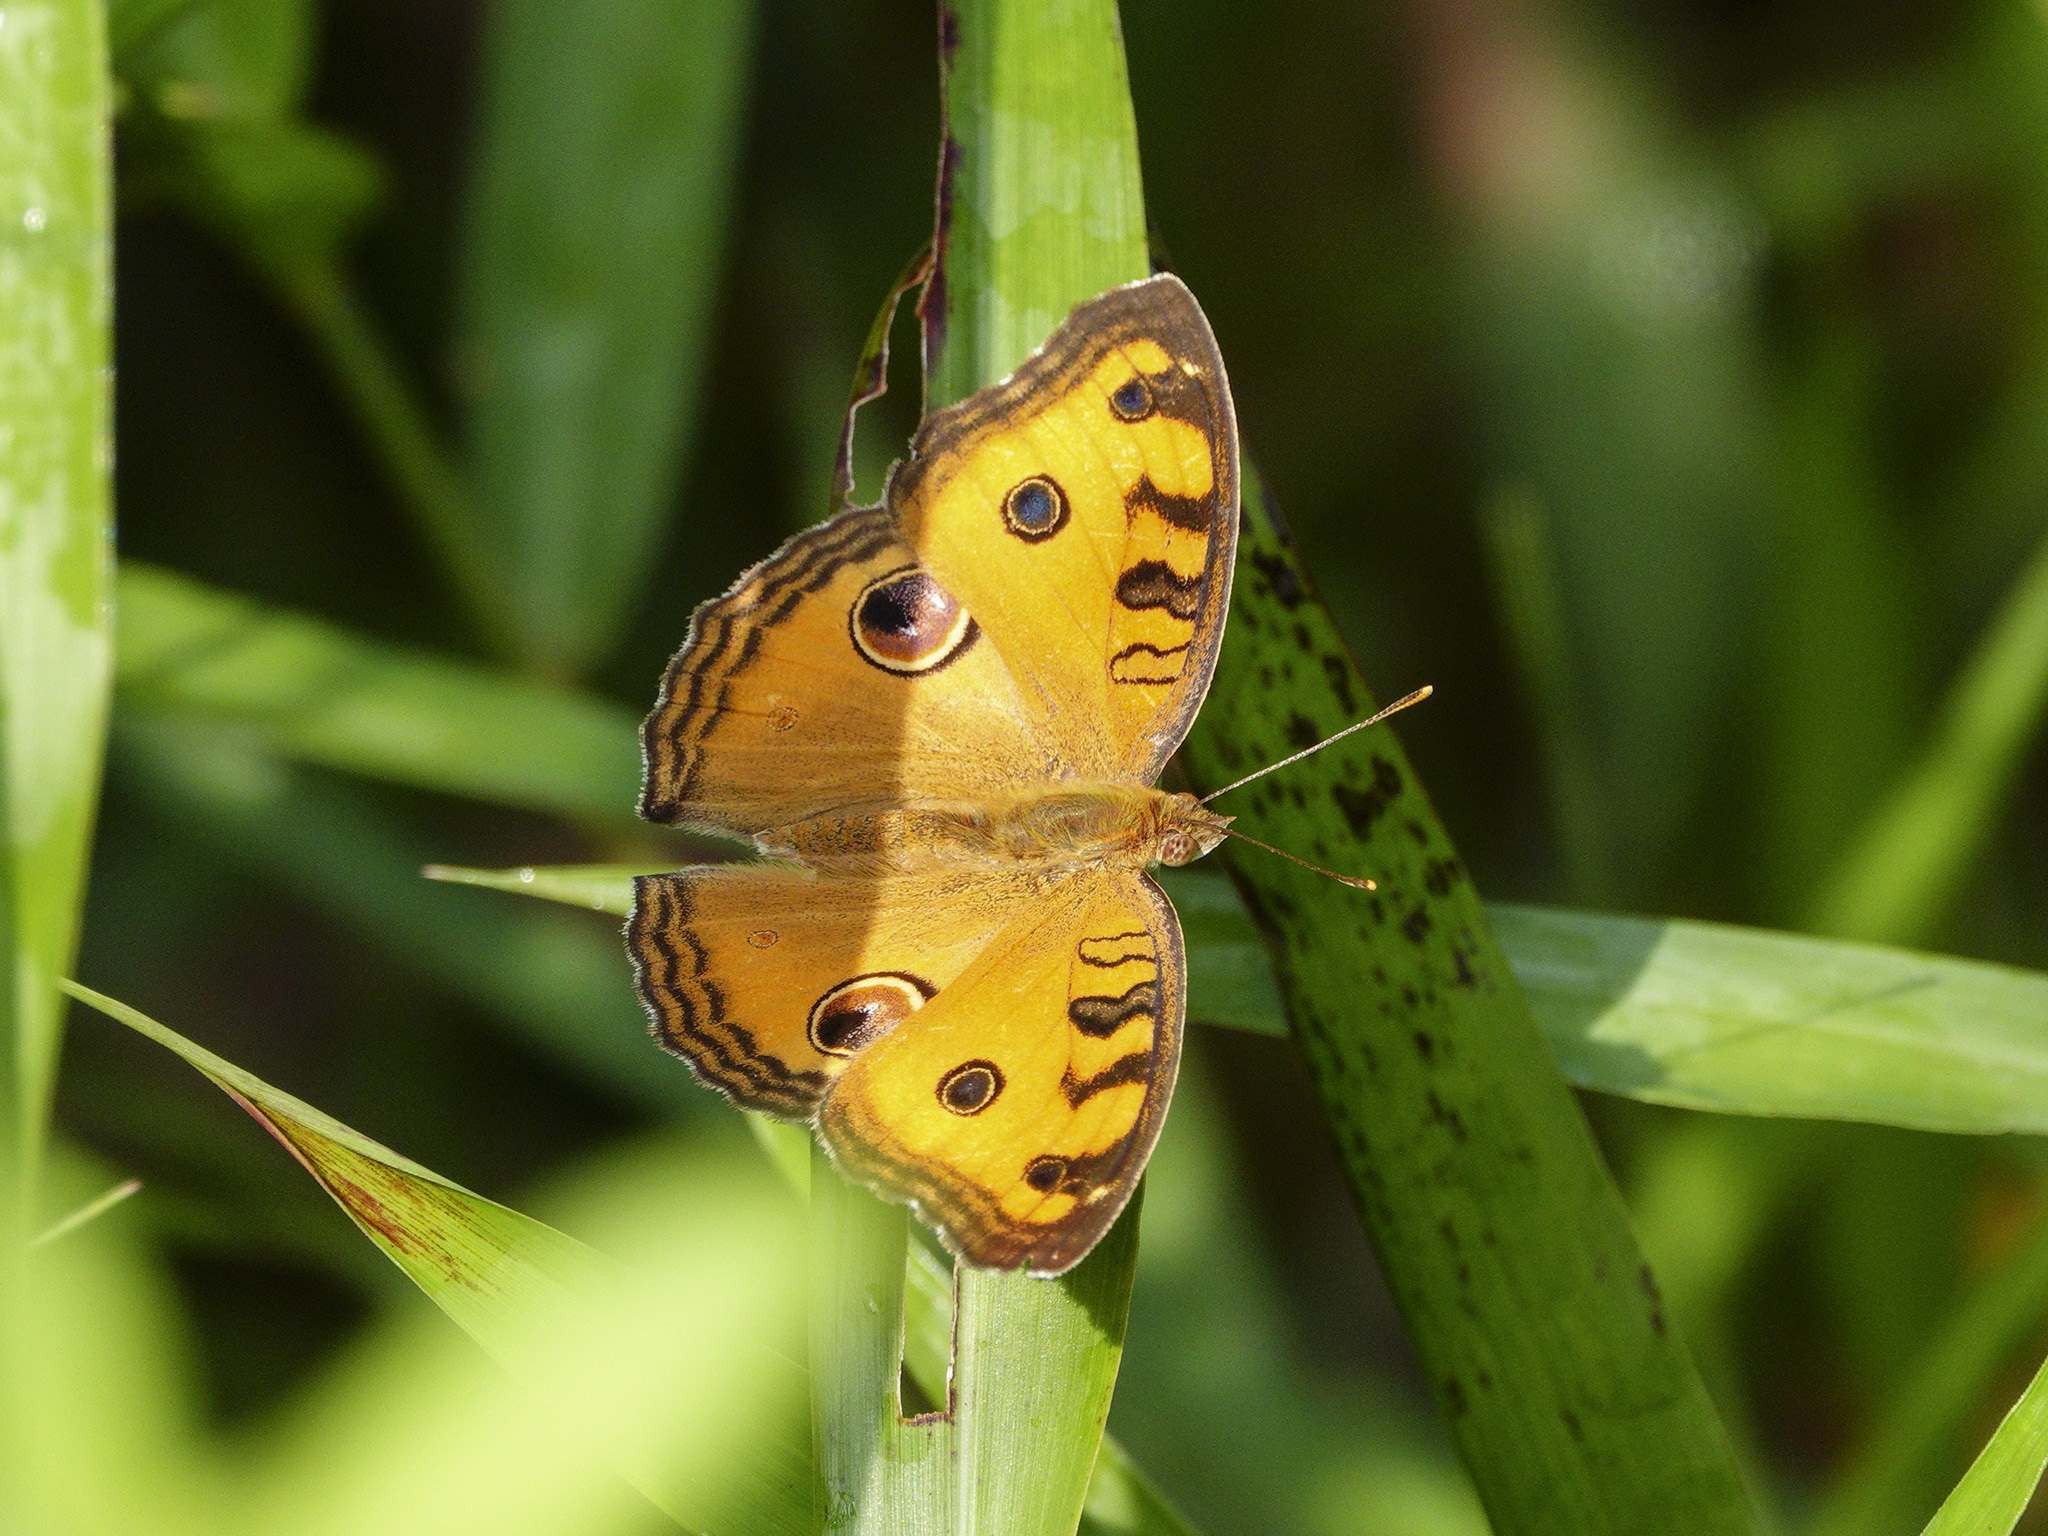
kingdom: Animalia
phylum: Arthropoda
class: Insecta
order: Lepidoptera
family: Nymphalidae
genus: Junonia
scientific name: Junonia almana
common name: Peacock pansy
